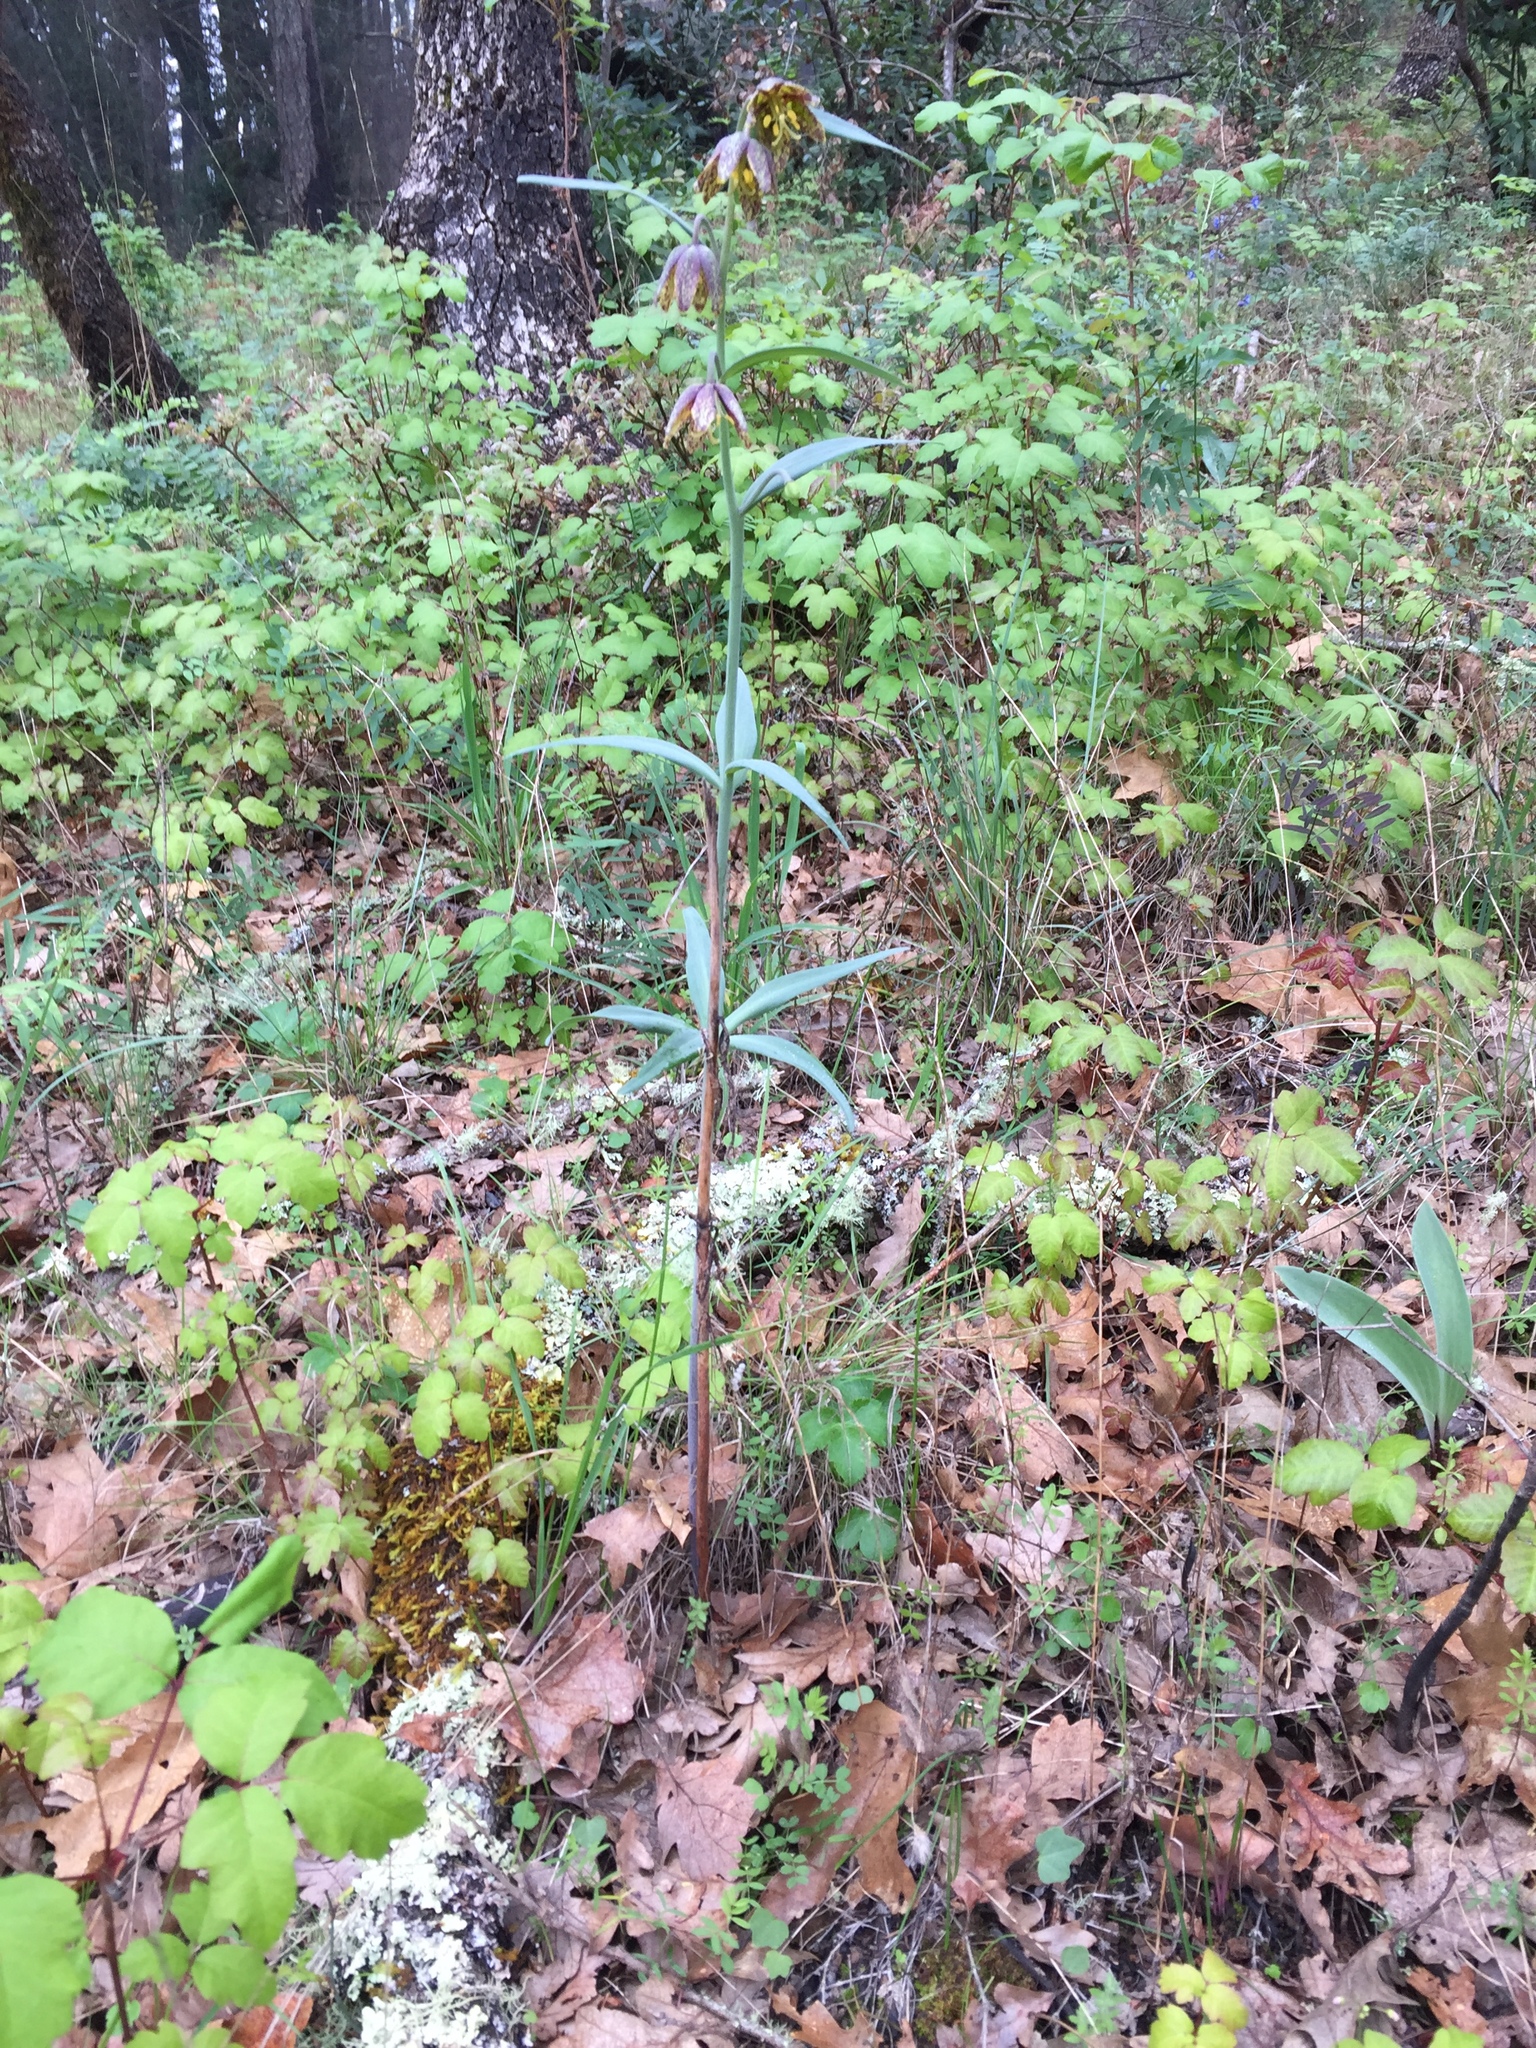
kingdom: Plantae
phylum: Tracheophyta
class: Liliopsida
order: Liliales
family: Liliaceae
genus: Fritillaria
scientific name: Fritillaria affinis
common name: Ojai fritillary
